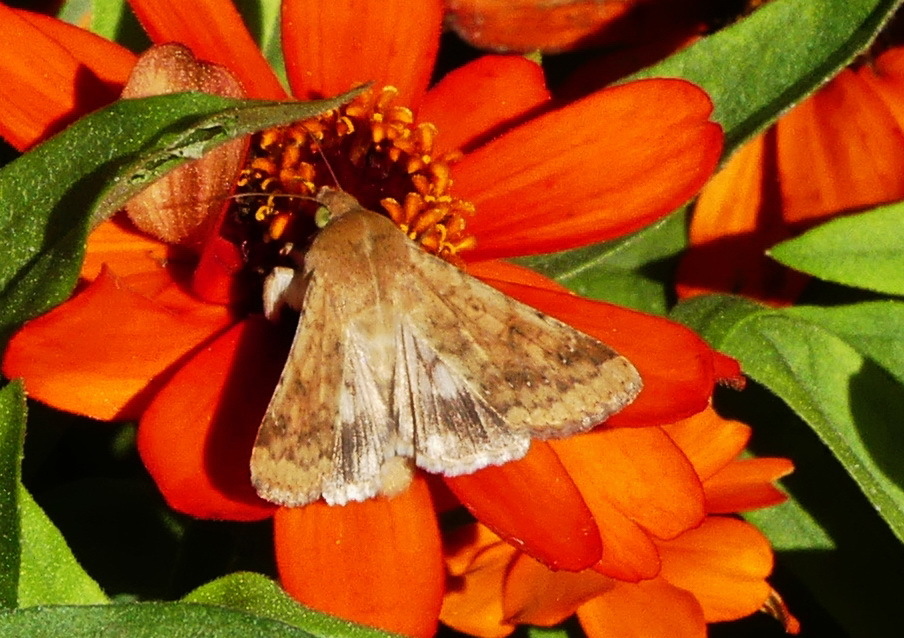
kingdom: Animalia
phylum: Arthropoda
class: Insecta
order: Lepidoptera
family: Noctuidae
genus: Helicoverpa
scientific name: Helicoverpa zea
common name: Bollworm
